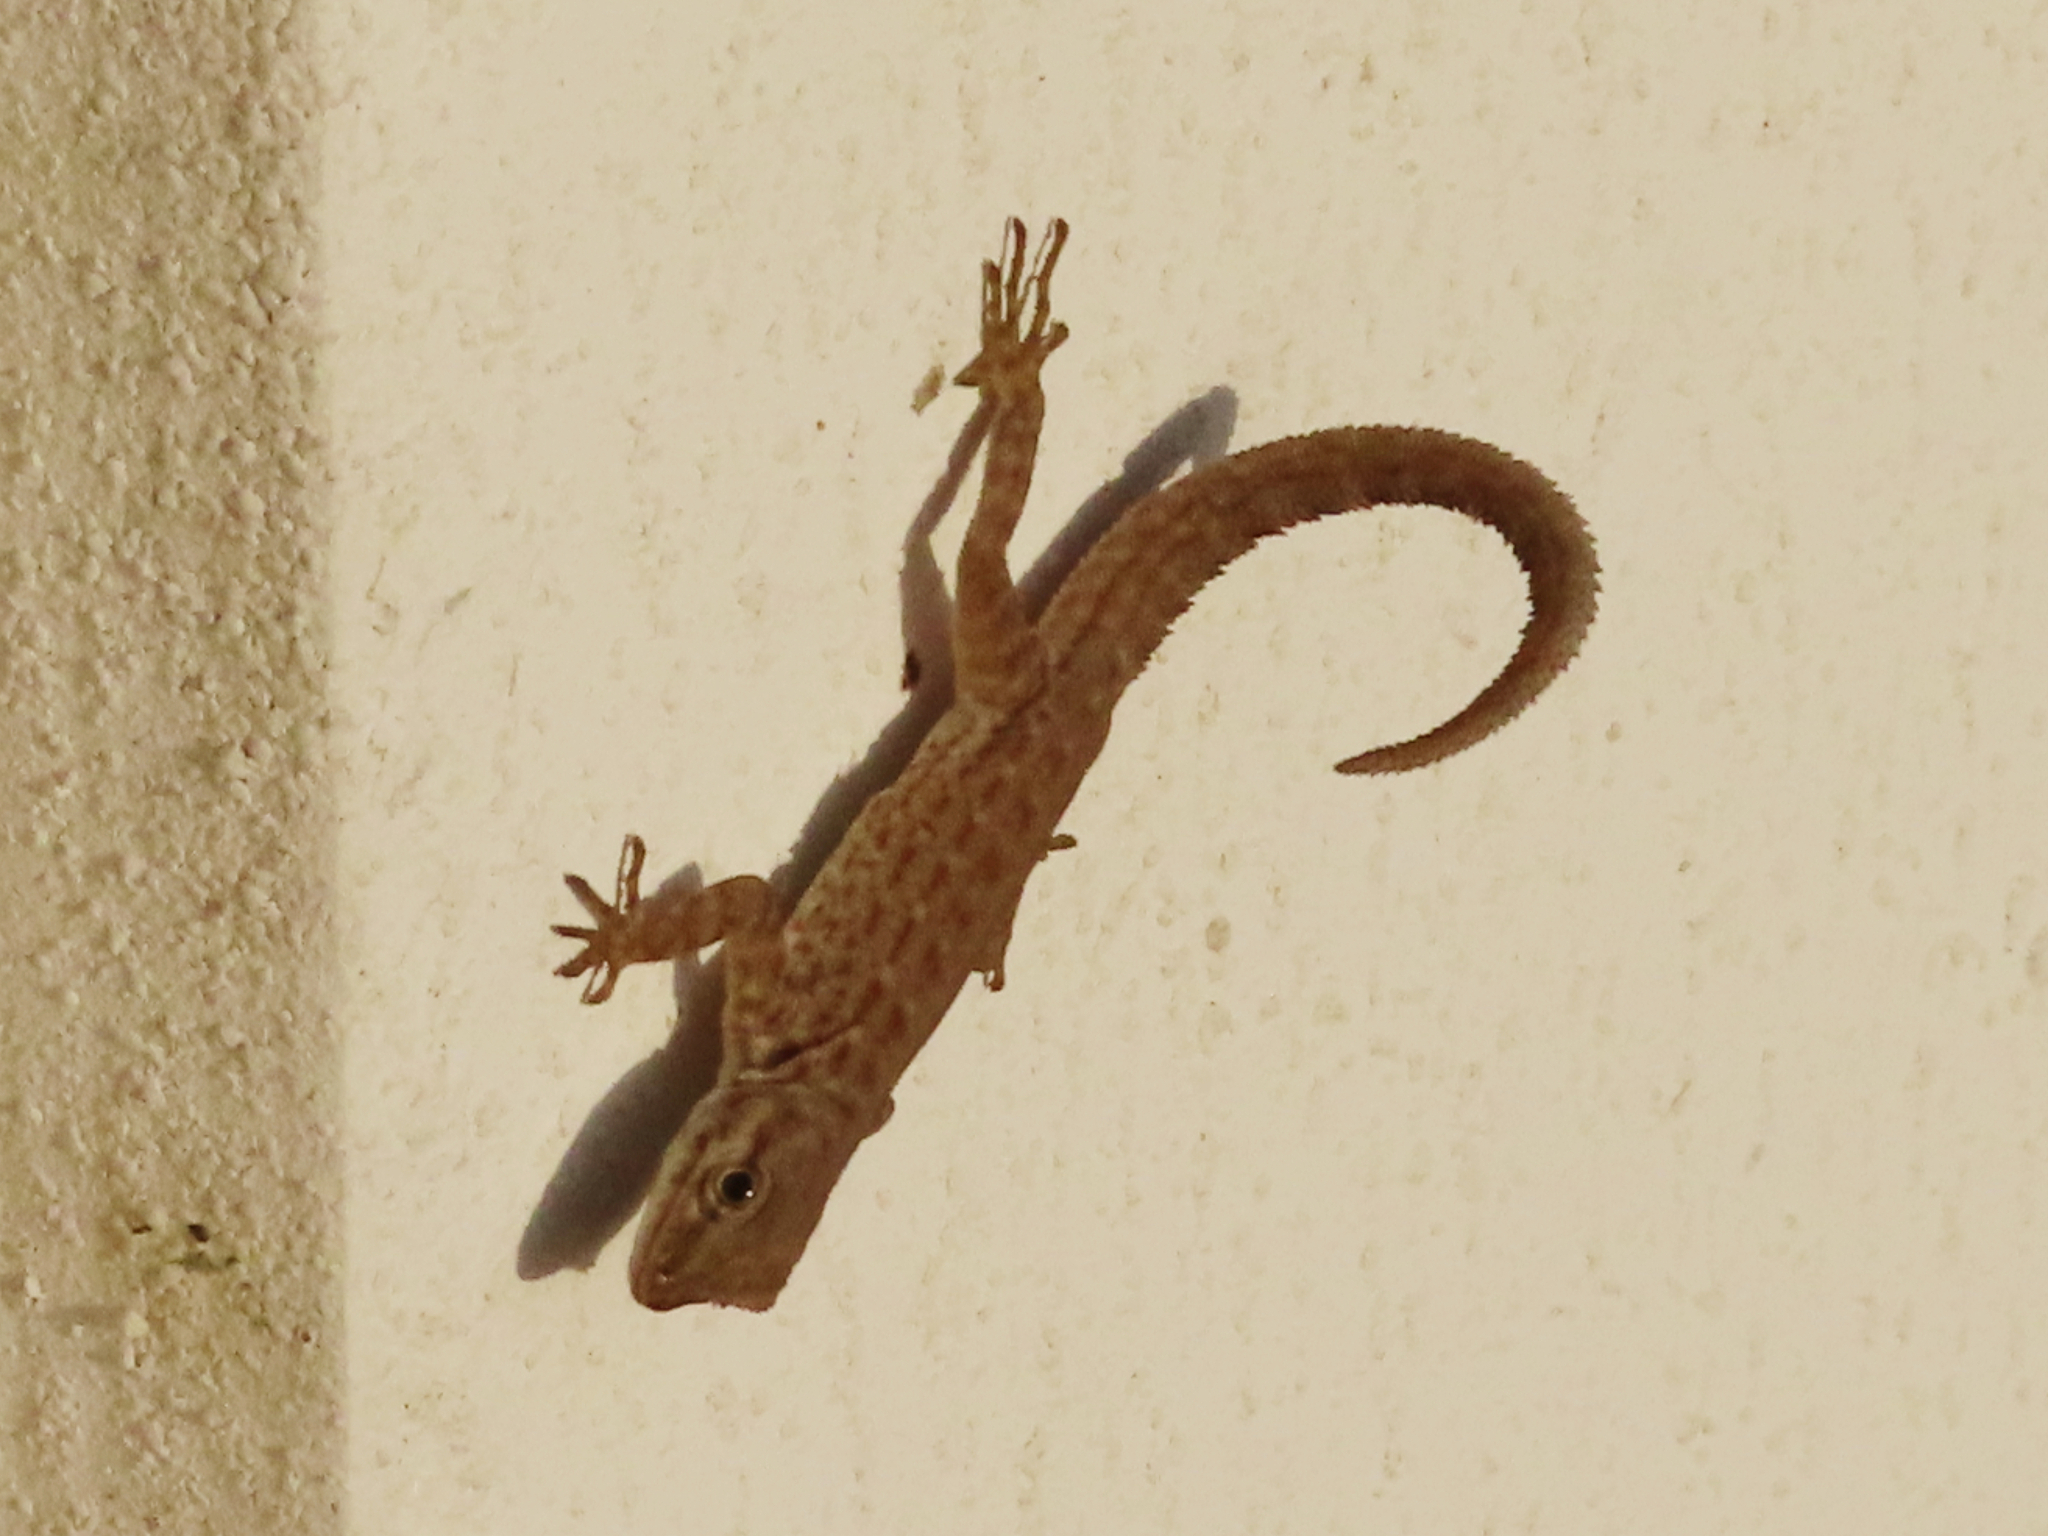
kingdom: Animalia
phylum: Chordata
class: Squamata
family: Sphaerodactylidae
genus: Pristurus
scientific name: Pristurus rupestris
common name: Blanford’s semaphore gecko
